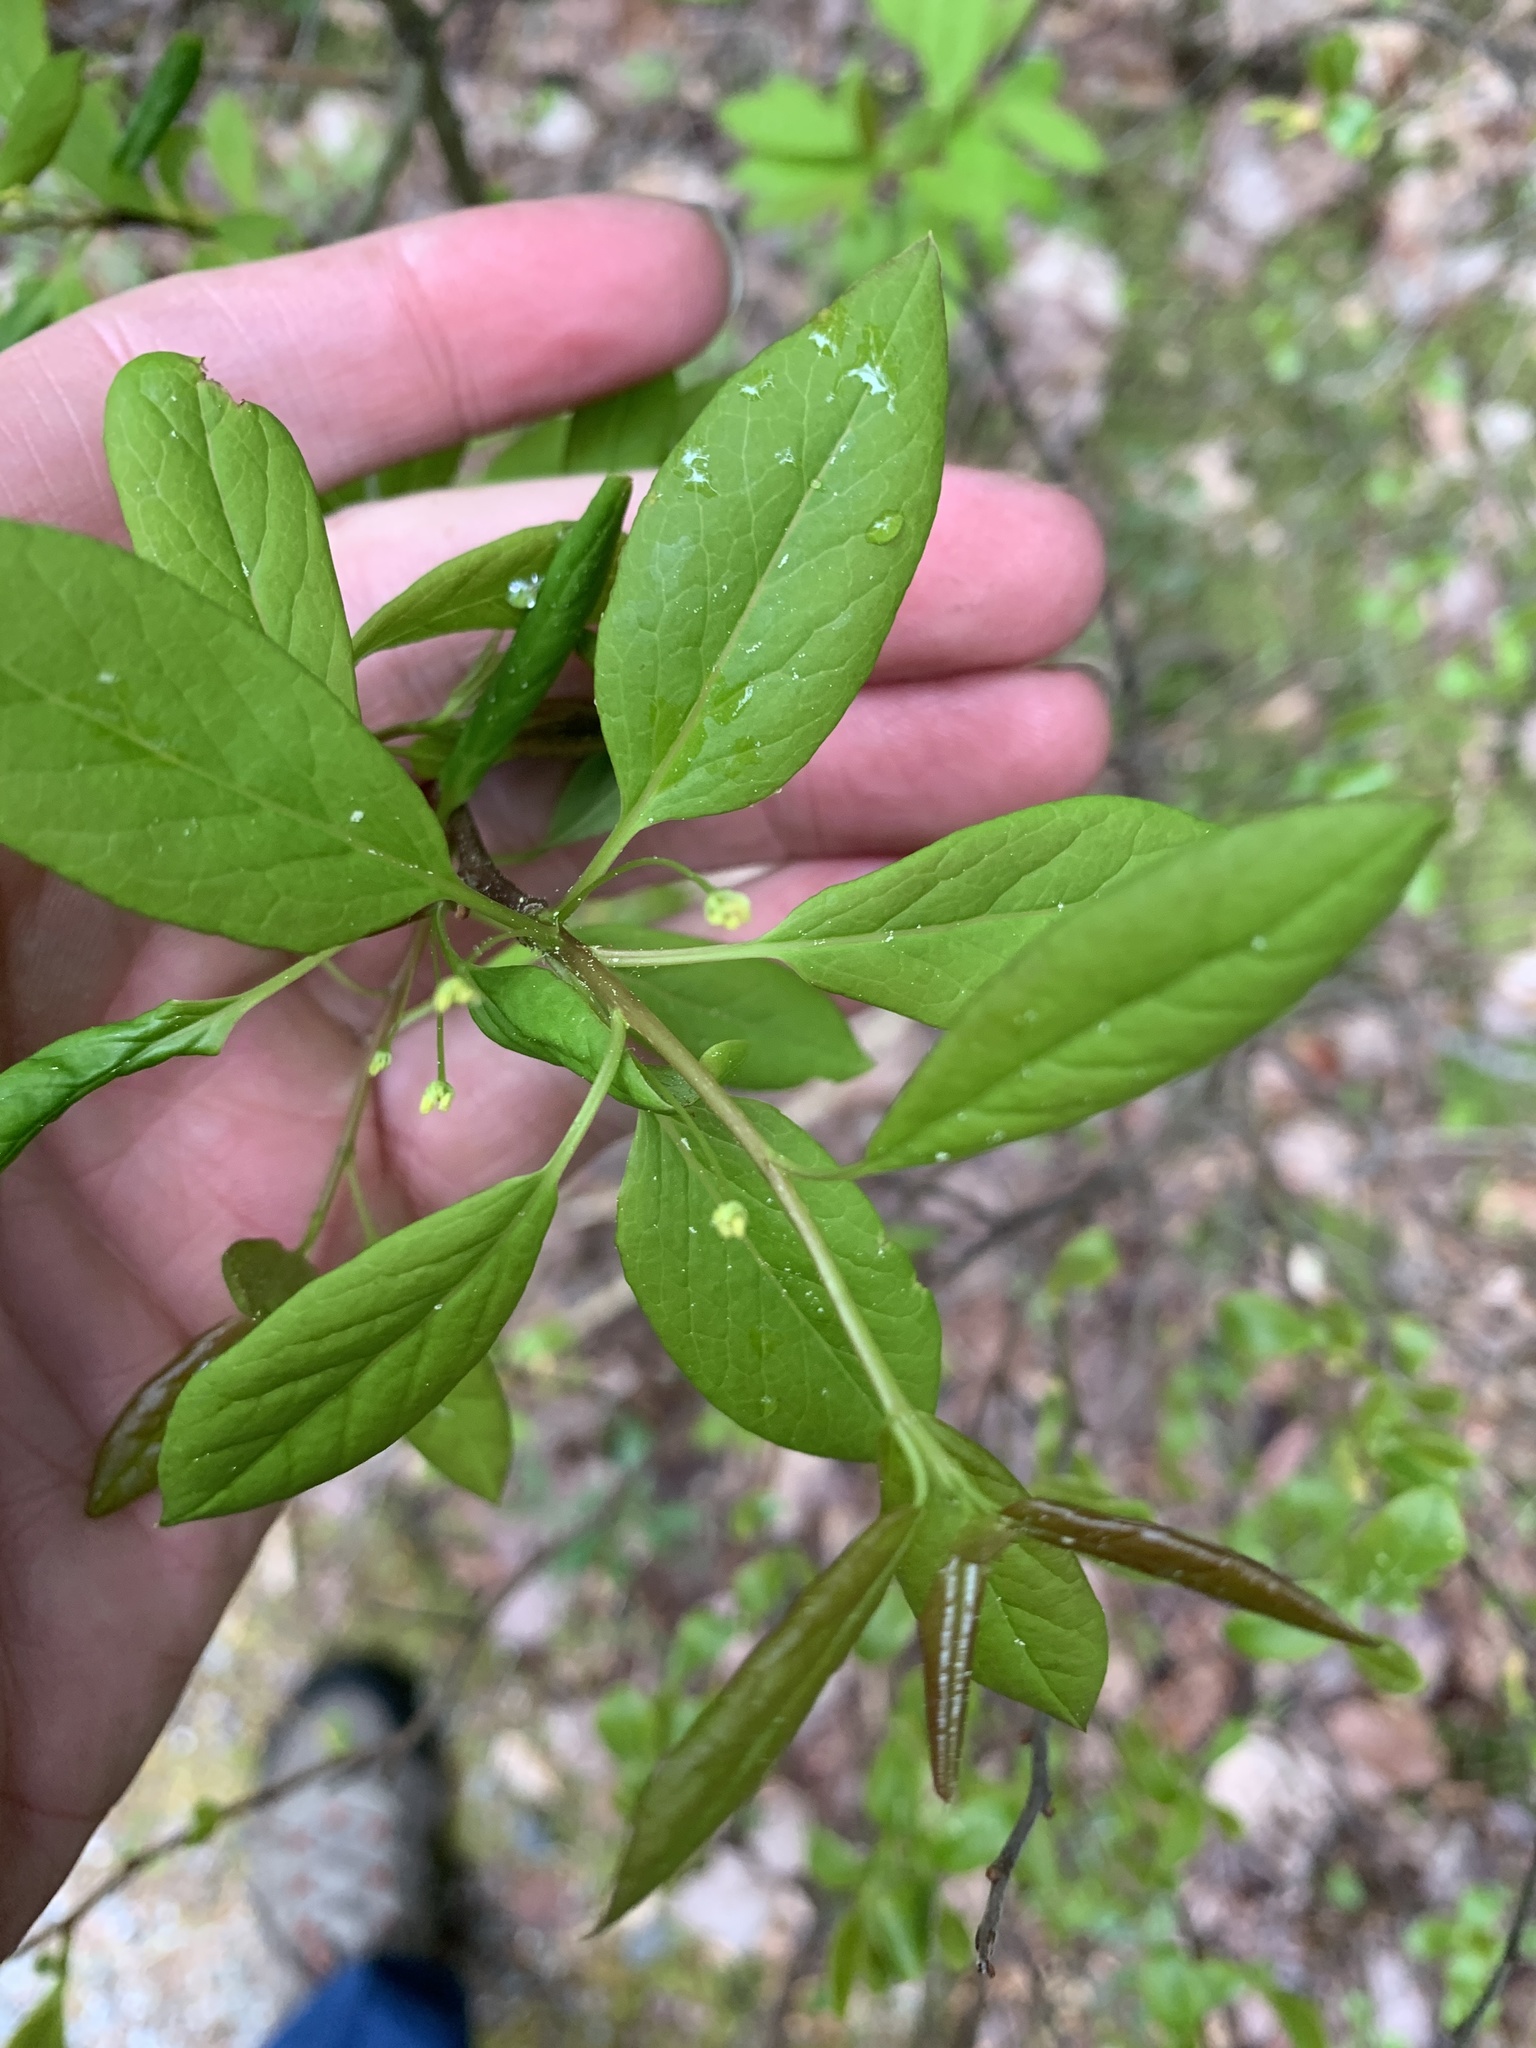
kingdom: Plantae
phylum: Tracheophyta
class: Magnoliopsida
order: Aquifoliales
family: Aquifoliaceae
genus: Ilex
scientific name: Ilex mucronata
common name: Catberry
